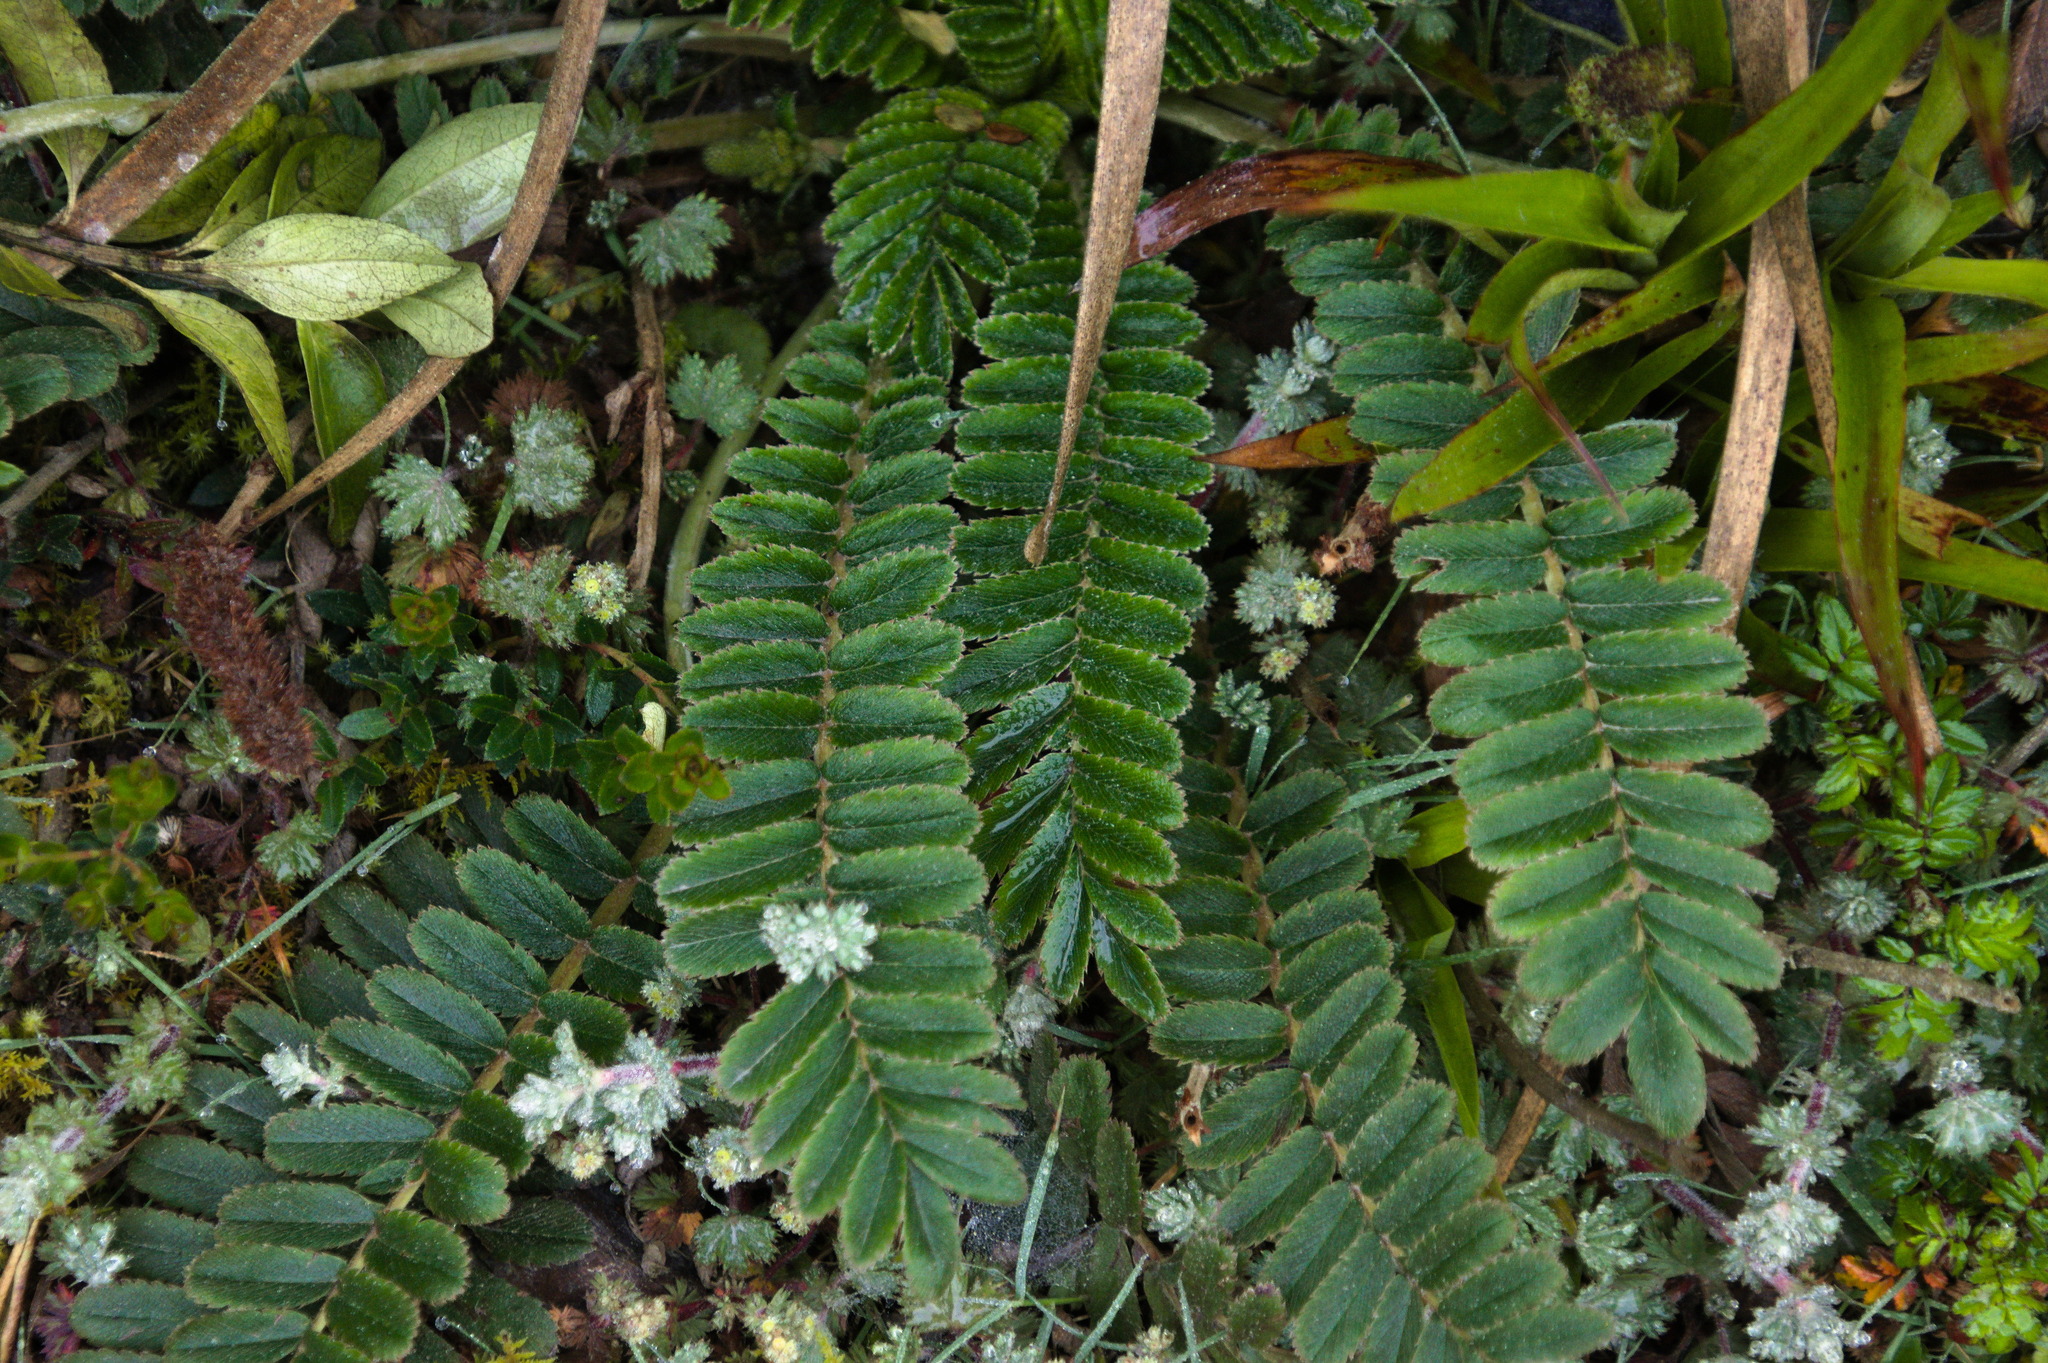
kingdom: Plantae
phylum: Tracheophyta
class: Magnoliopsida
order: Rosales
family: Rosaceae
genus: Acaena
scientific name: Acaena cylindristachya
